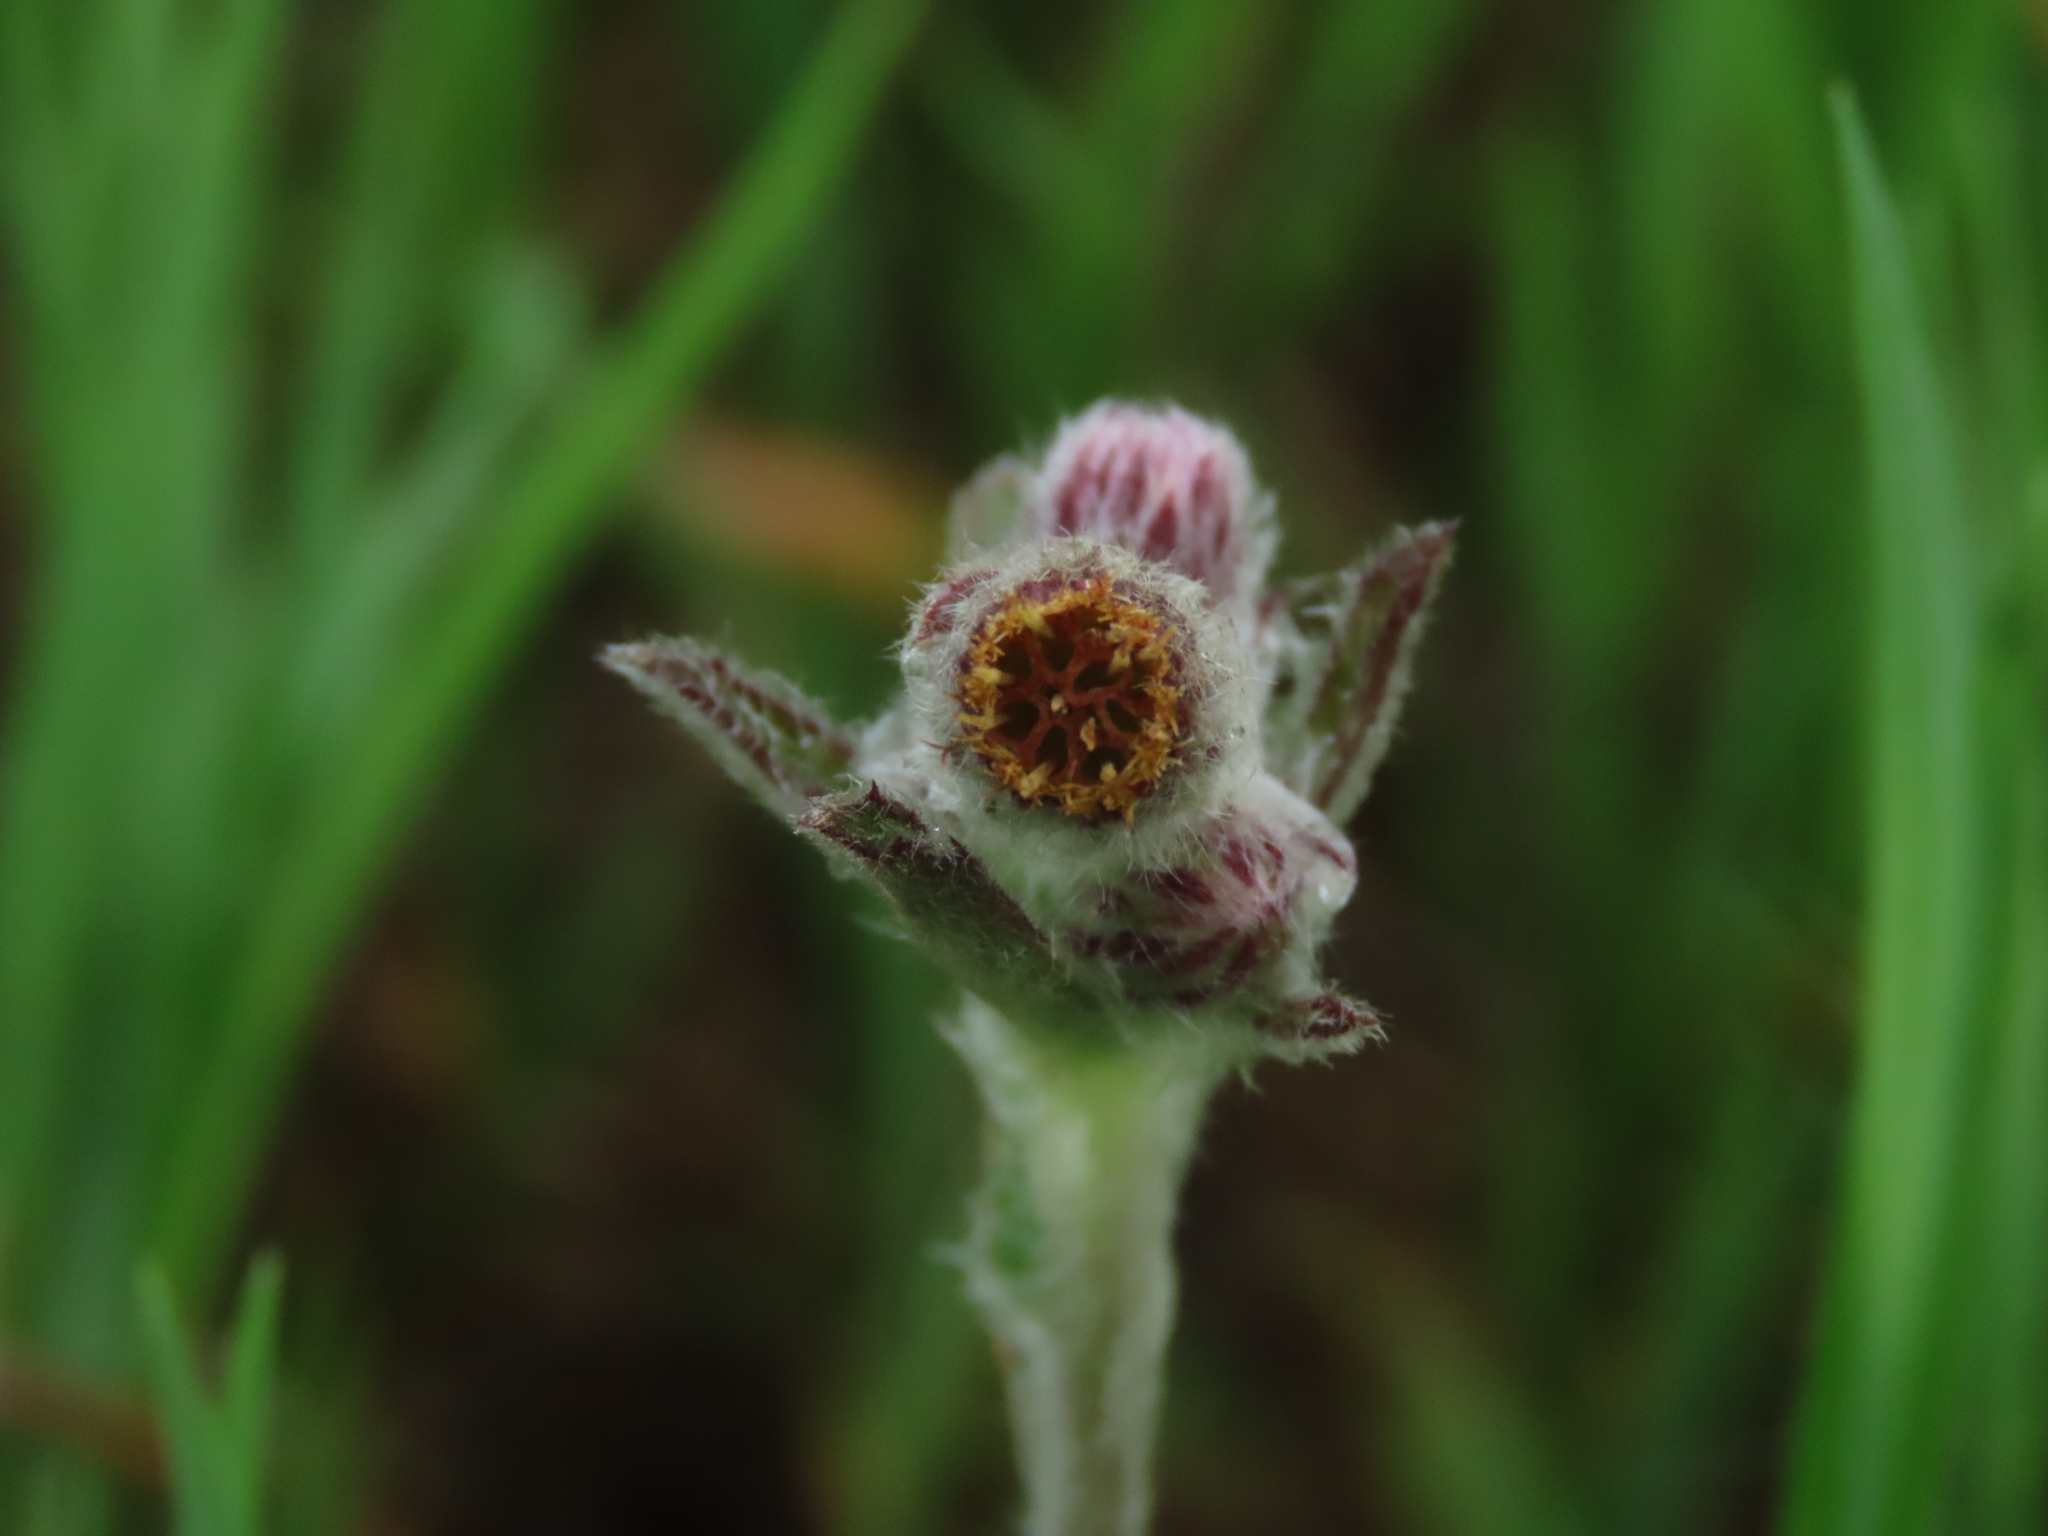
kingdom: Plantae
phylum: Tracheophyta
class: Magnoliopsida
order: Asterales
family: Asteraceae
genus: Blumea
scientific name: Blumea hieraciifolia
